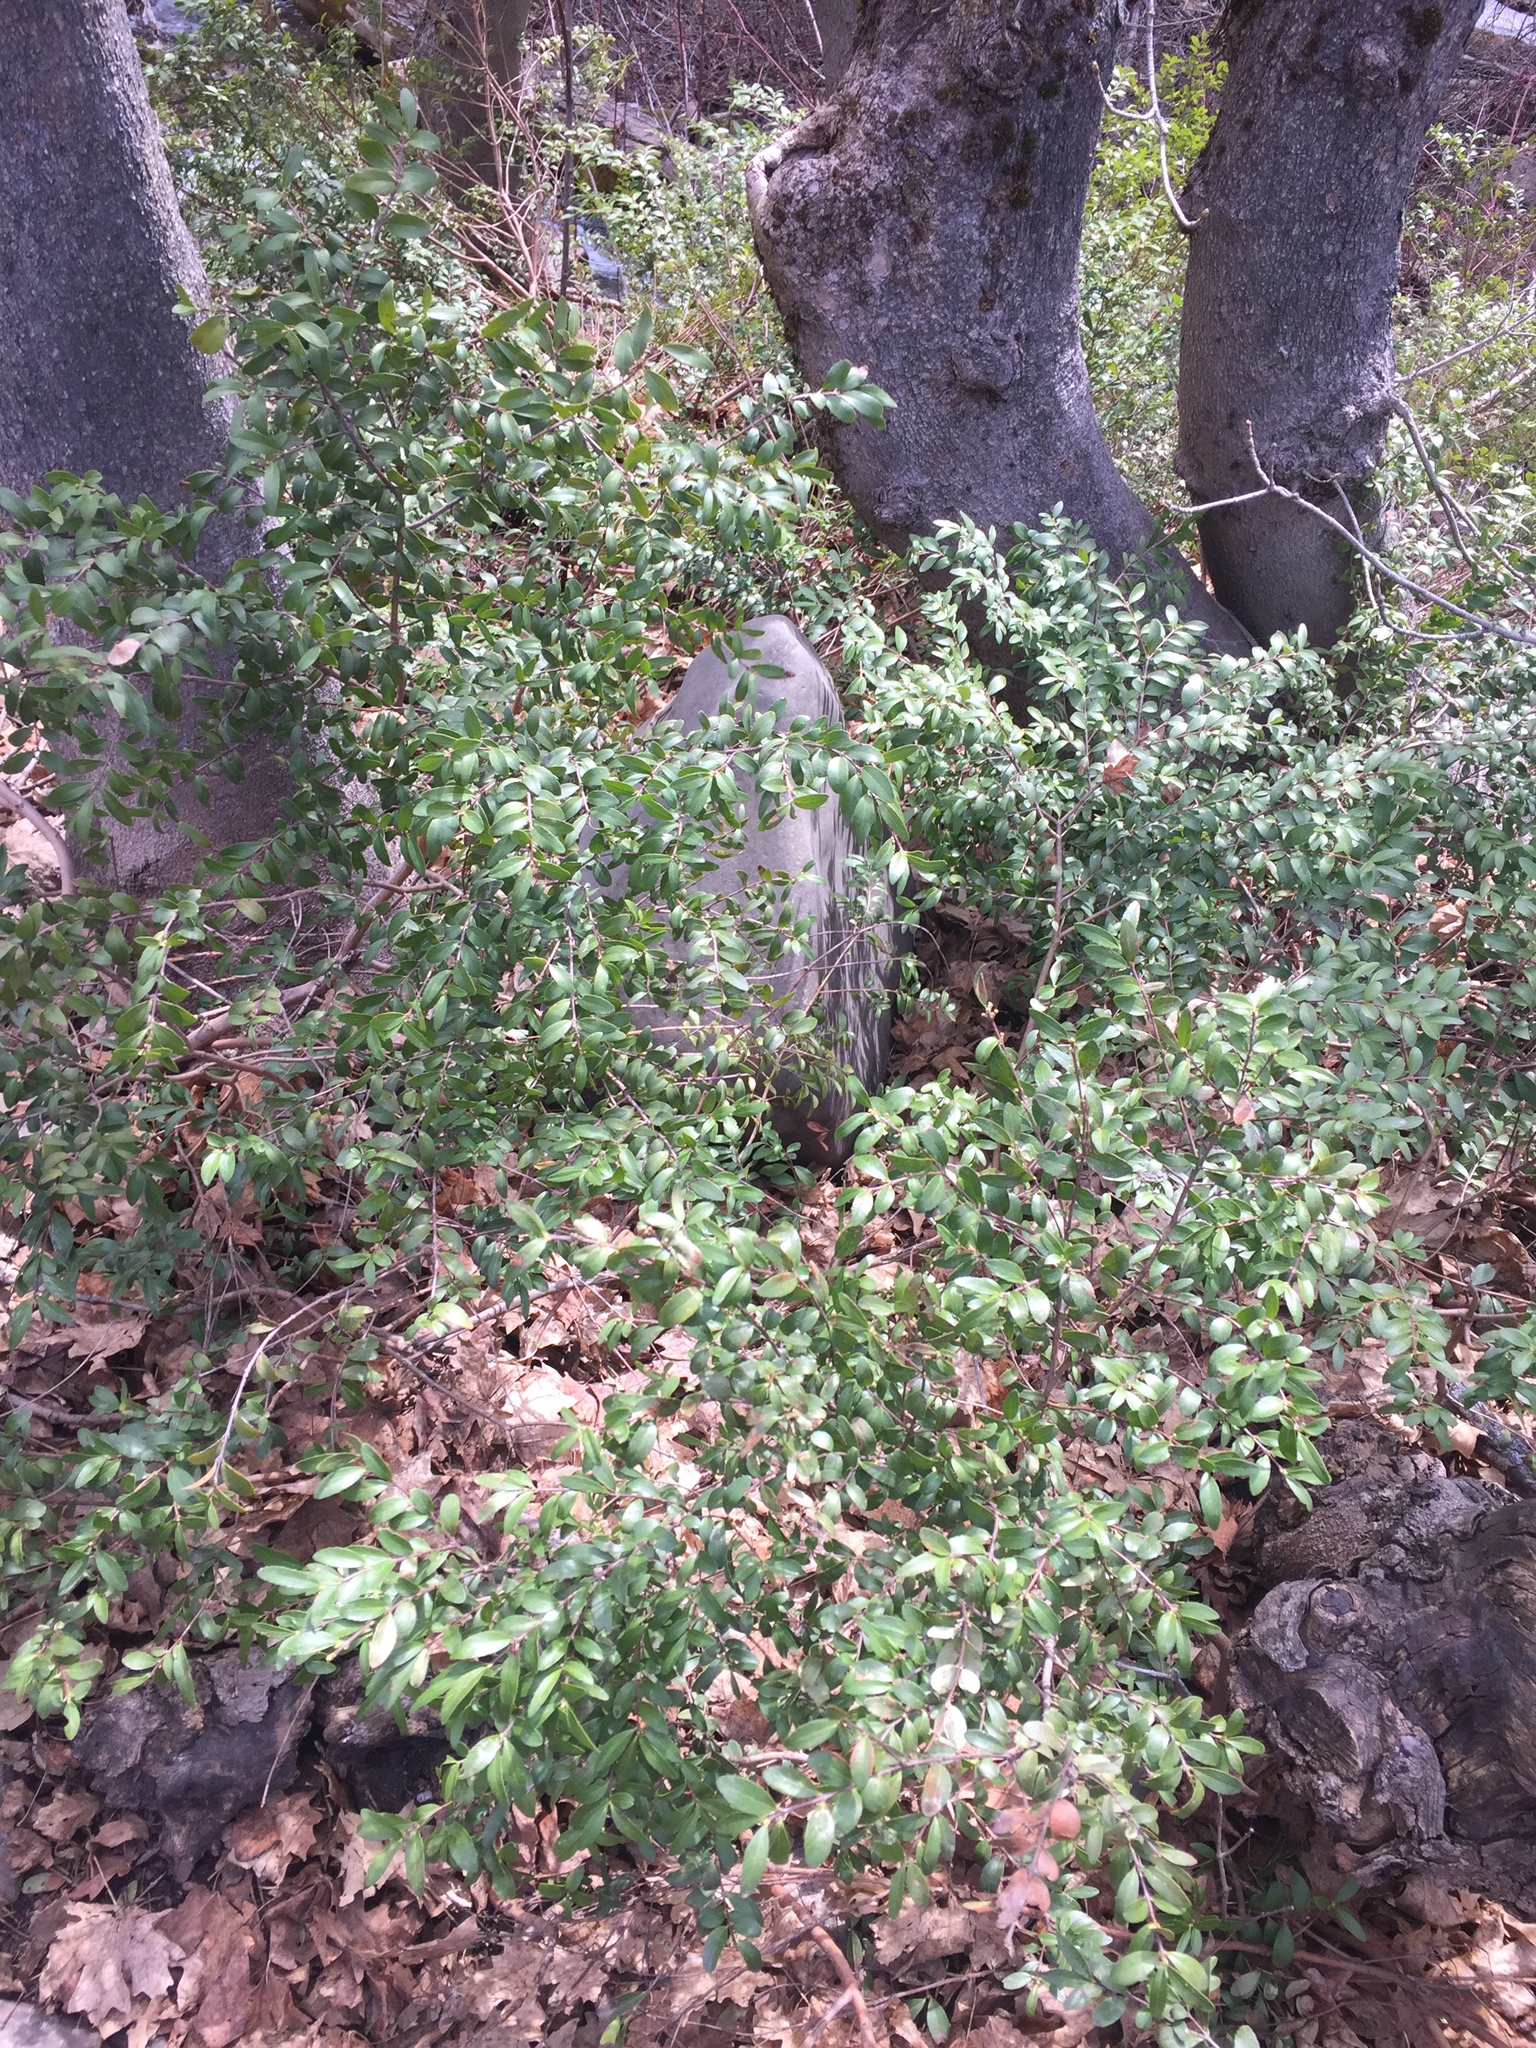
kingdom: Plantae
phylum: Tracheophyta
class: Magnoliopsida
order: Celastrales
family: Celastraceae
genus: Paxistima
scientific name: Paxistima myrsinites
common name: Mountain-lover
